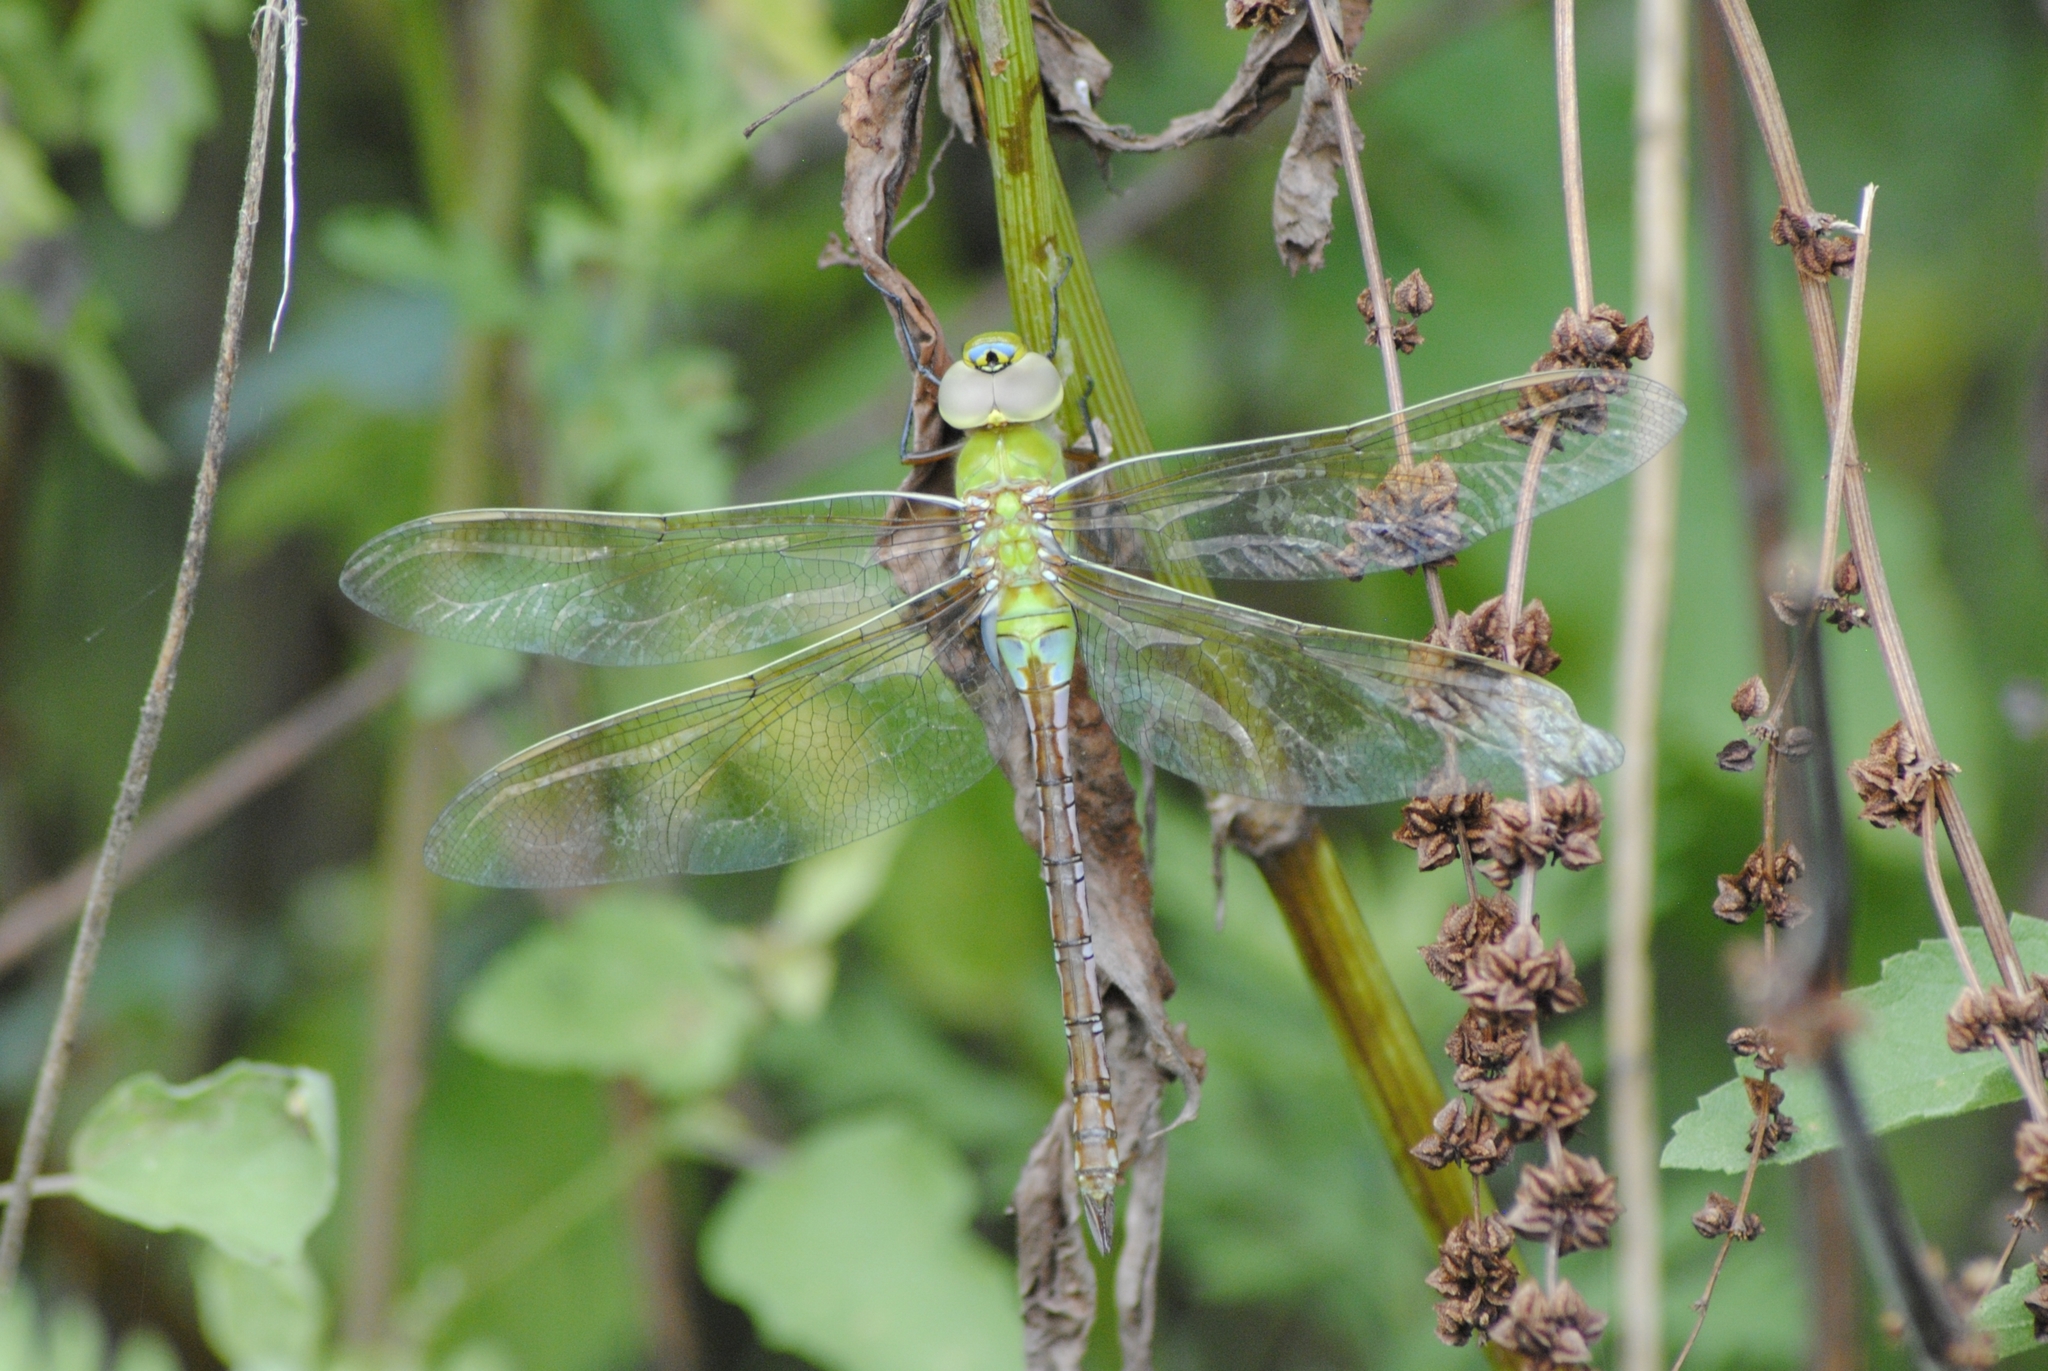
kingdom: Animalia
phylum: Arthropoda
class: Insecta
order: Odonata
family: Aeshnidae
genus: Anax
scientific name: Anax junius
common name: Common green darner
